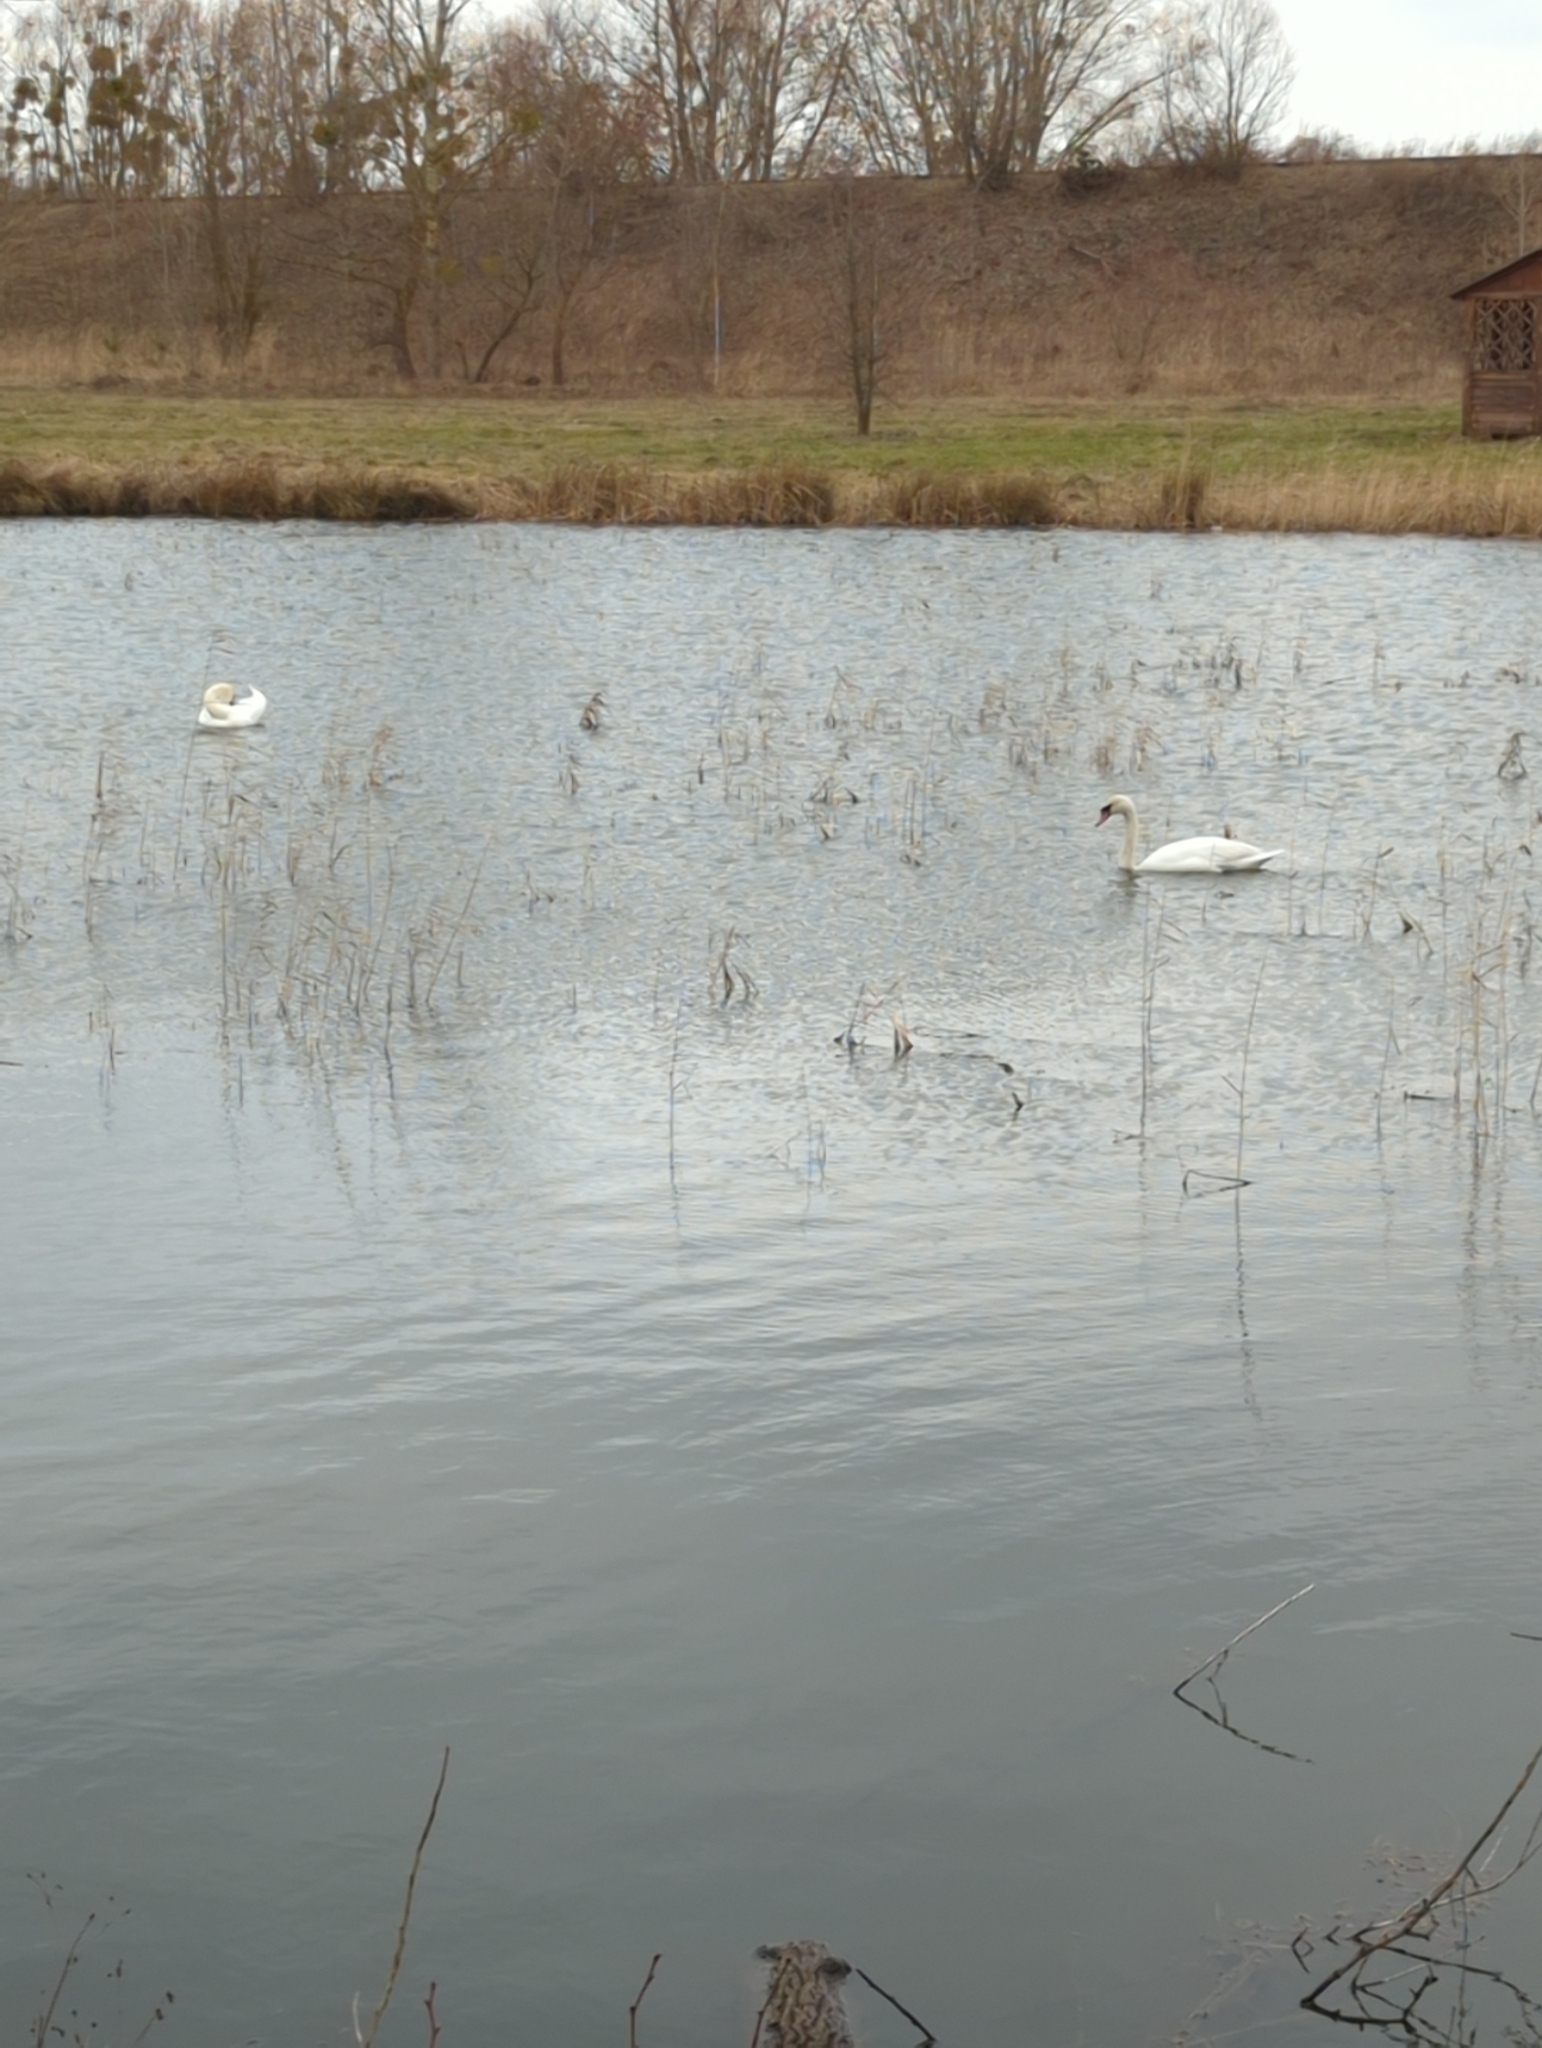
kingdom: Animalia
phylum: Chordata
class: Aves
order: Anseriformes
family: Anatidae
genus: Cygnus
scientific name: Cygnus olor
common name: Mute swan
